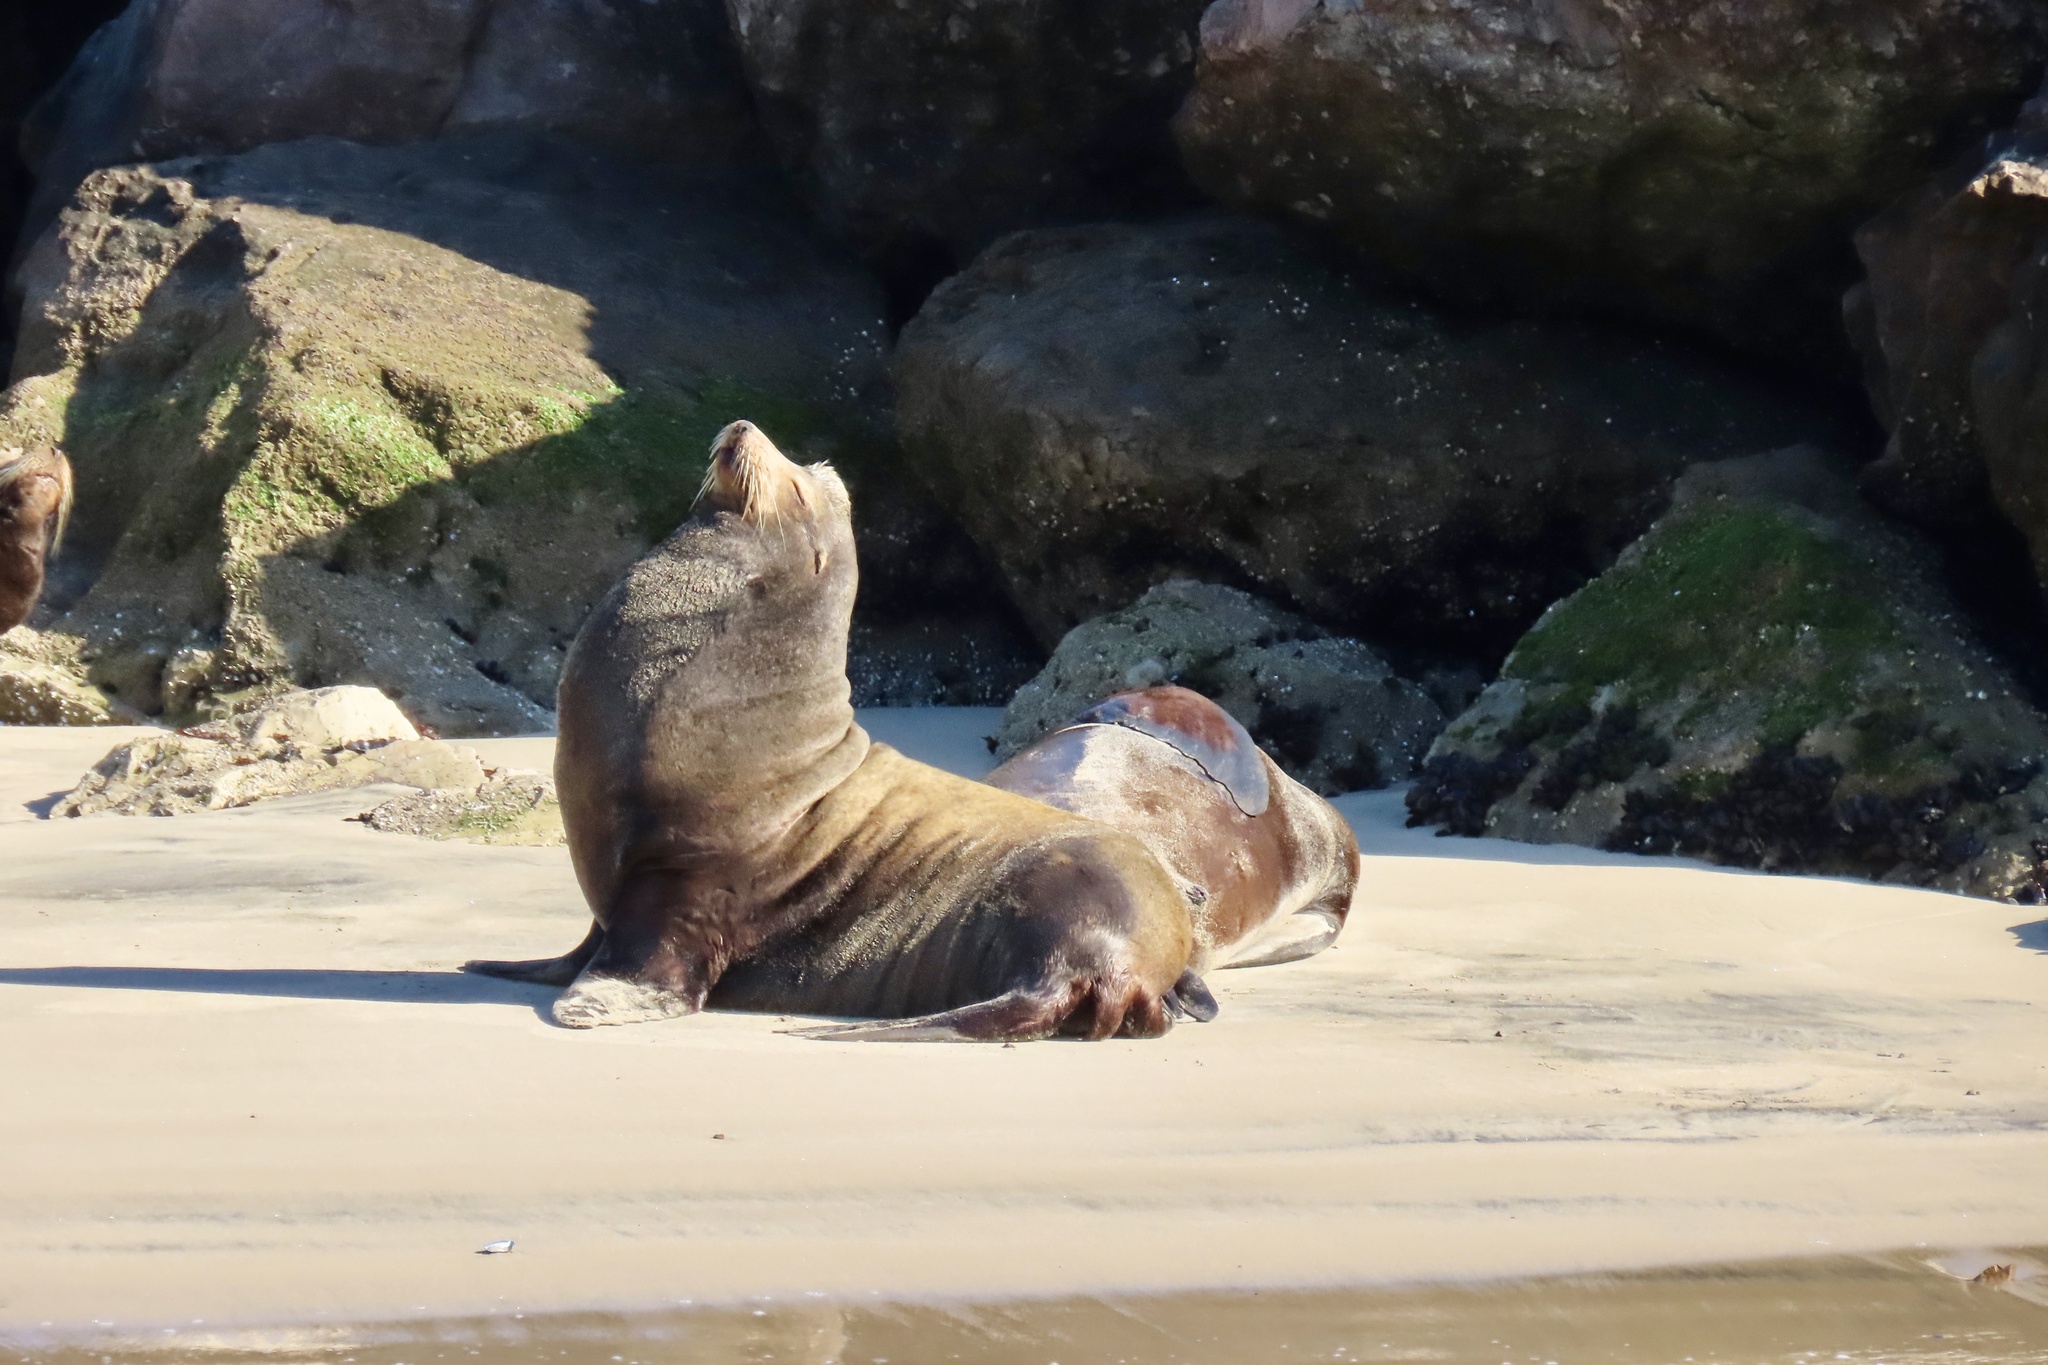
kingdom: Animalia
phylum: Chordata
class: Mammalia
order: Carnivora
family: Otariidae
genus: Zalophus
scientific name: Zalophus californianus
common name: California sea lion
